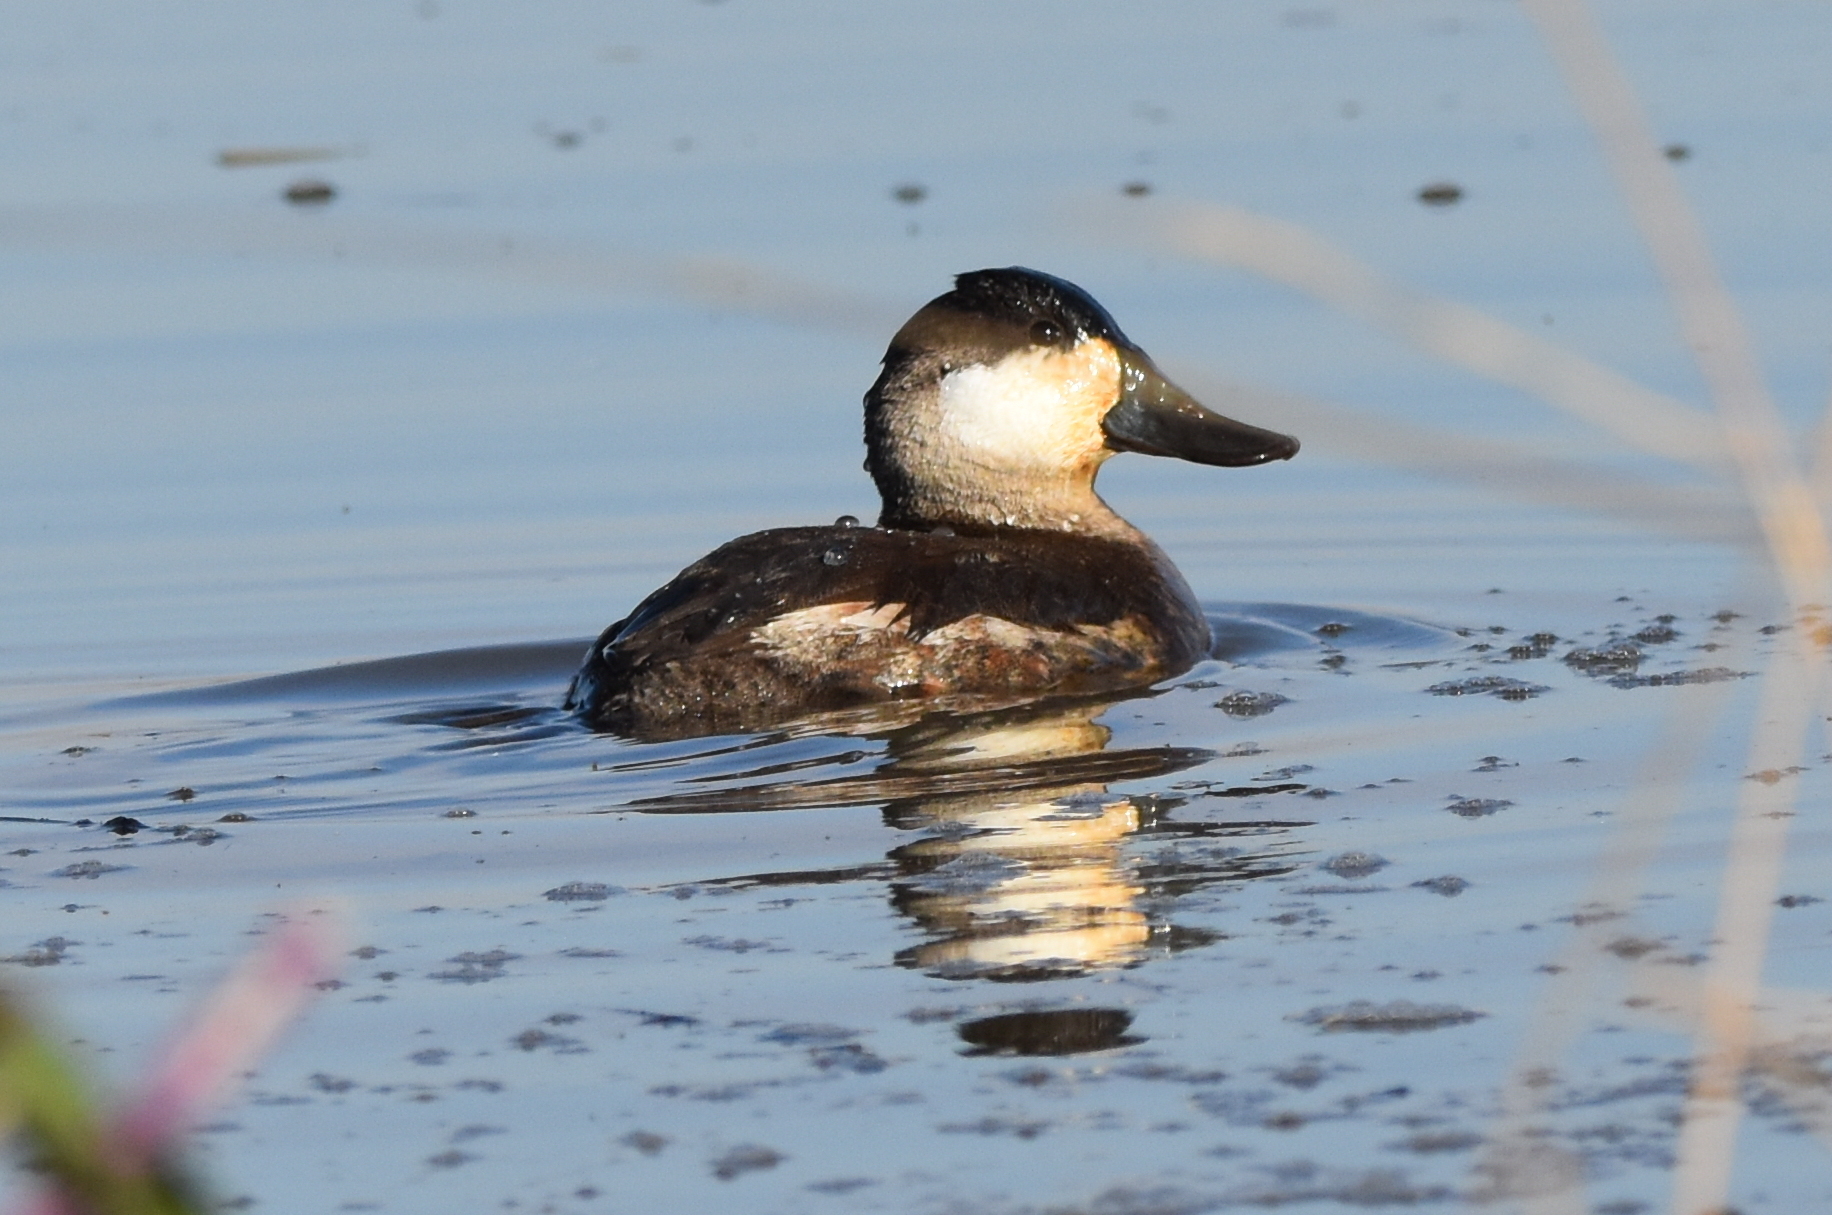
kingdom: Animalia
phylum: Chordata
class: Aves
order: Anseriformes
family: Anatidae
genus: Oxyura
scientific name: Oxyura jamaicensis
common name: Ruddy duck
